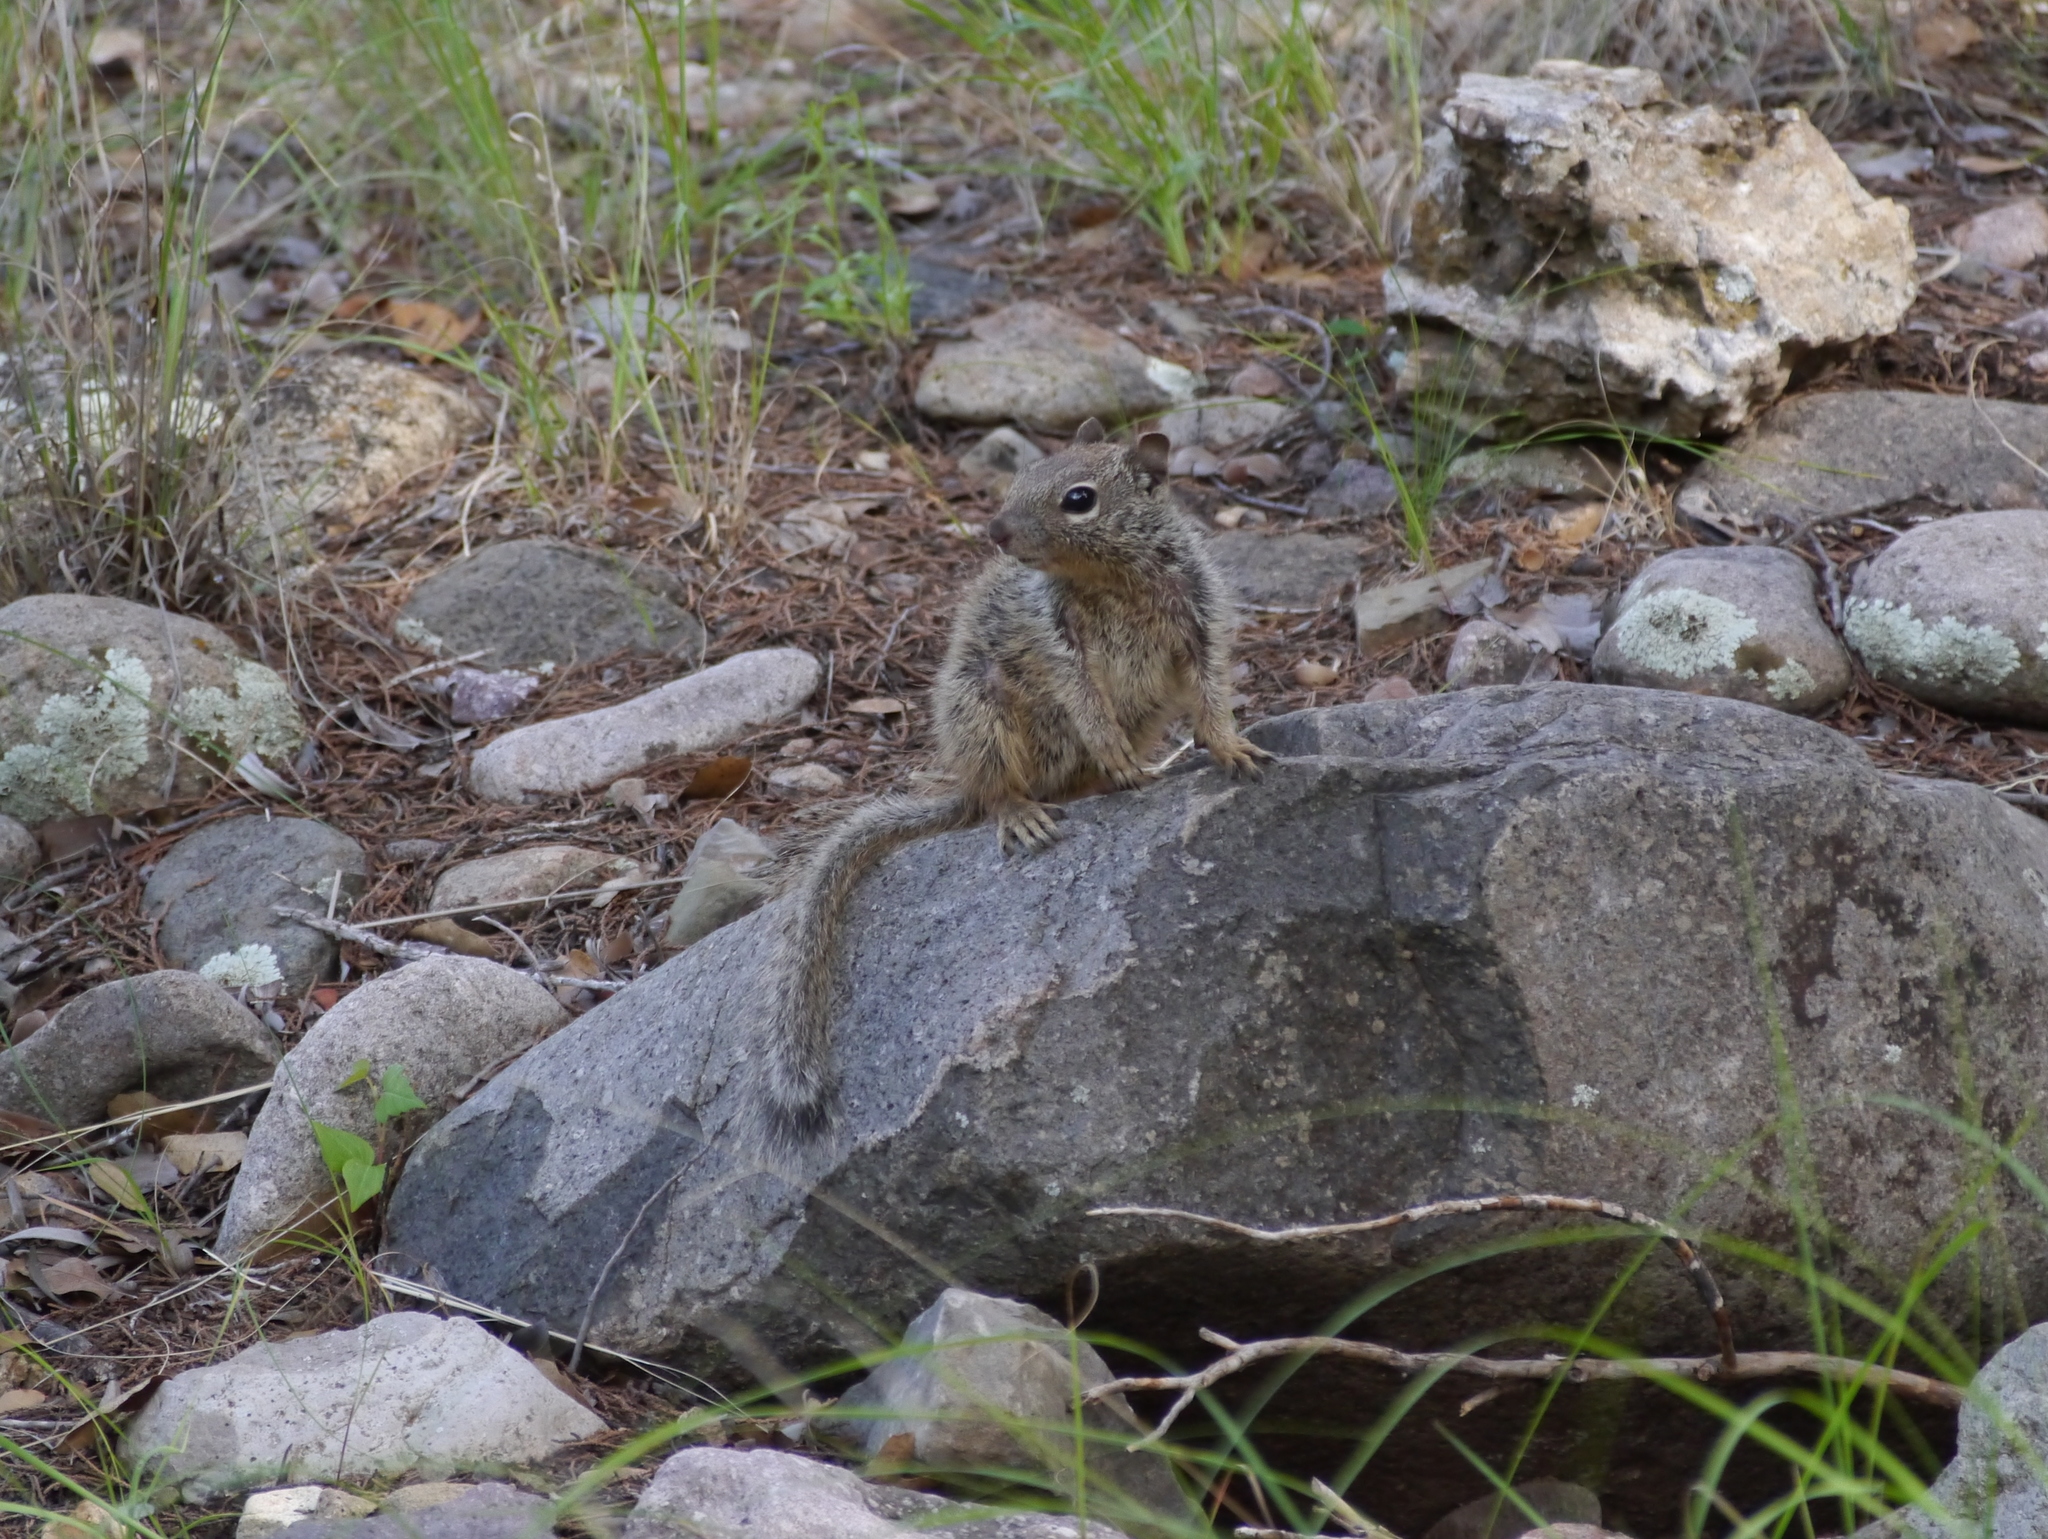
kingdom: Animalia
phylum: Chordata
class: Mammalia
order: Rodentia
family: Sciuridae
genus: Otospermophilus
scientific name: Otospermophilus variegatus
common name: Rock squirrel
